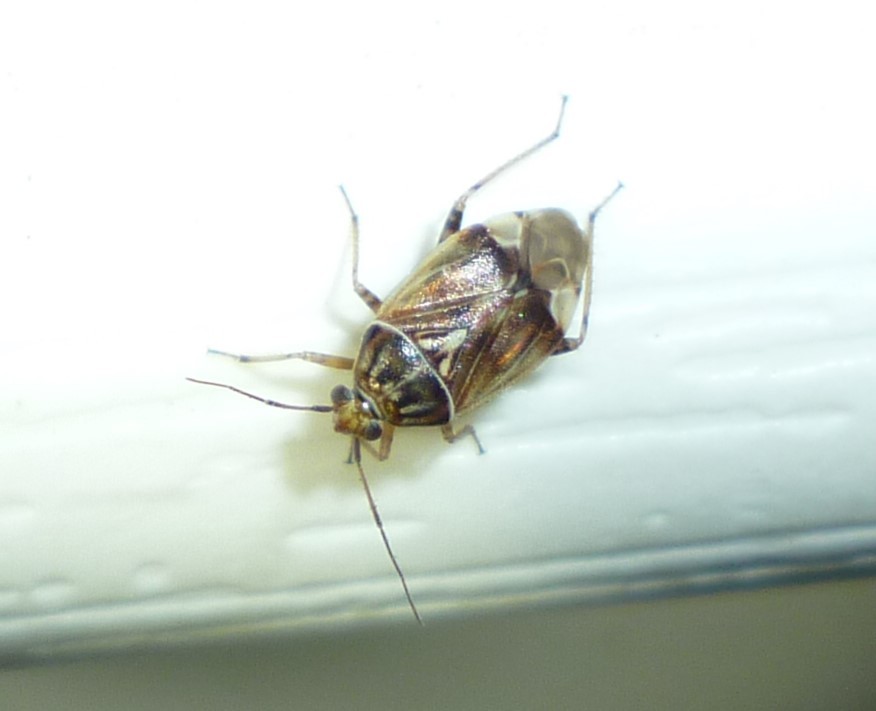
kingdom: Animalia
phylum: Arthropoda
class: Insecta
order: Hemiptera
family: Miridae
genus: Lygus
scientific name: Lygus lineolaris
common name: North american tarnished plant bug
